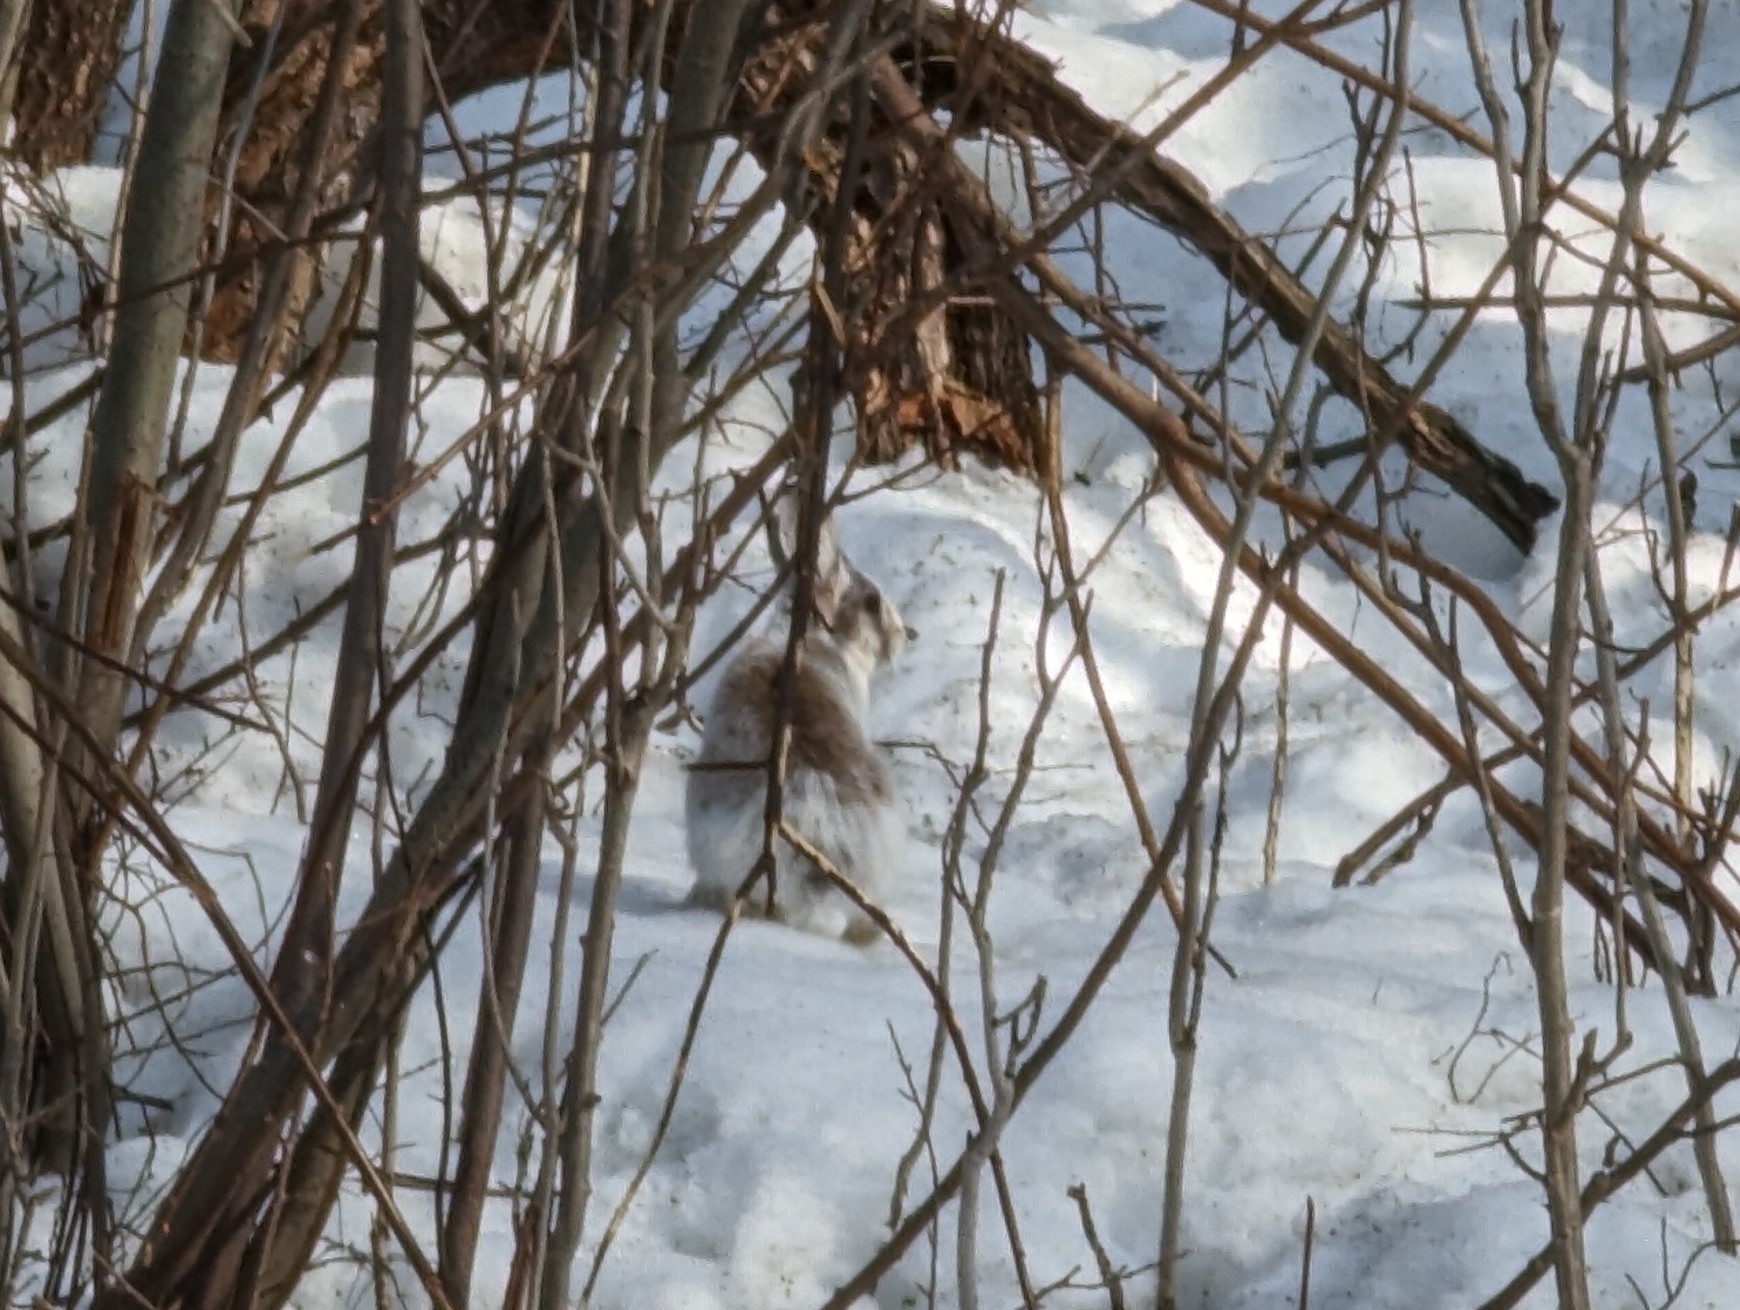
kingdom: Animalia
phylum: Chordata
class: Mammalia
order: Lagomorpha
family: Leporidae
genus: Lepus
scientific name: Lepus americanus
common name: Snowshoe hare
